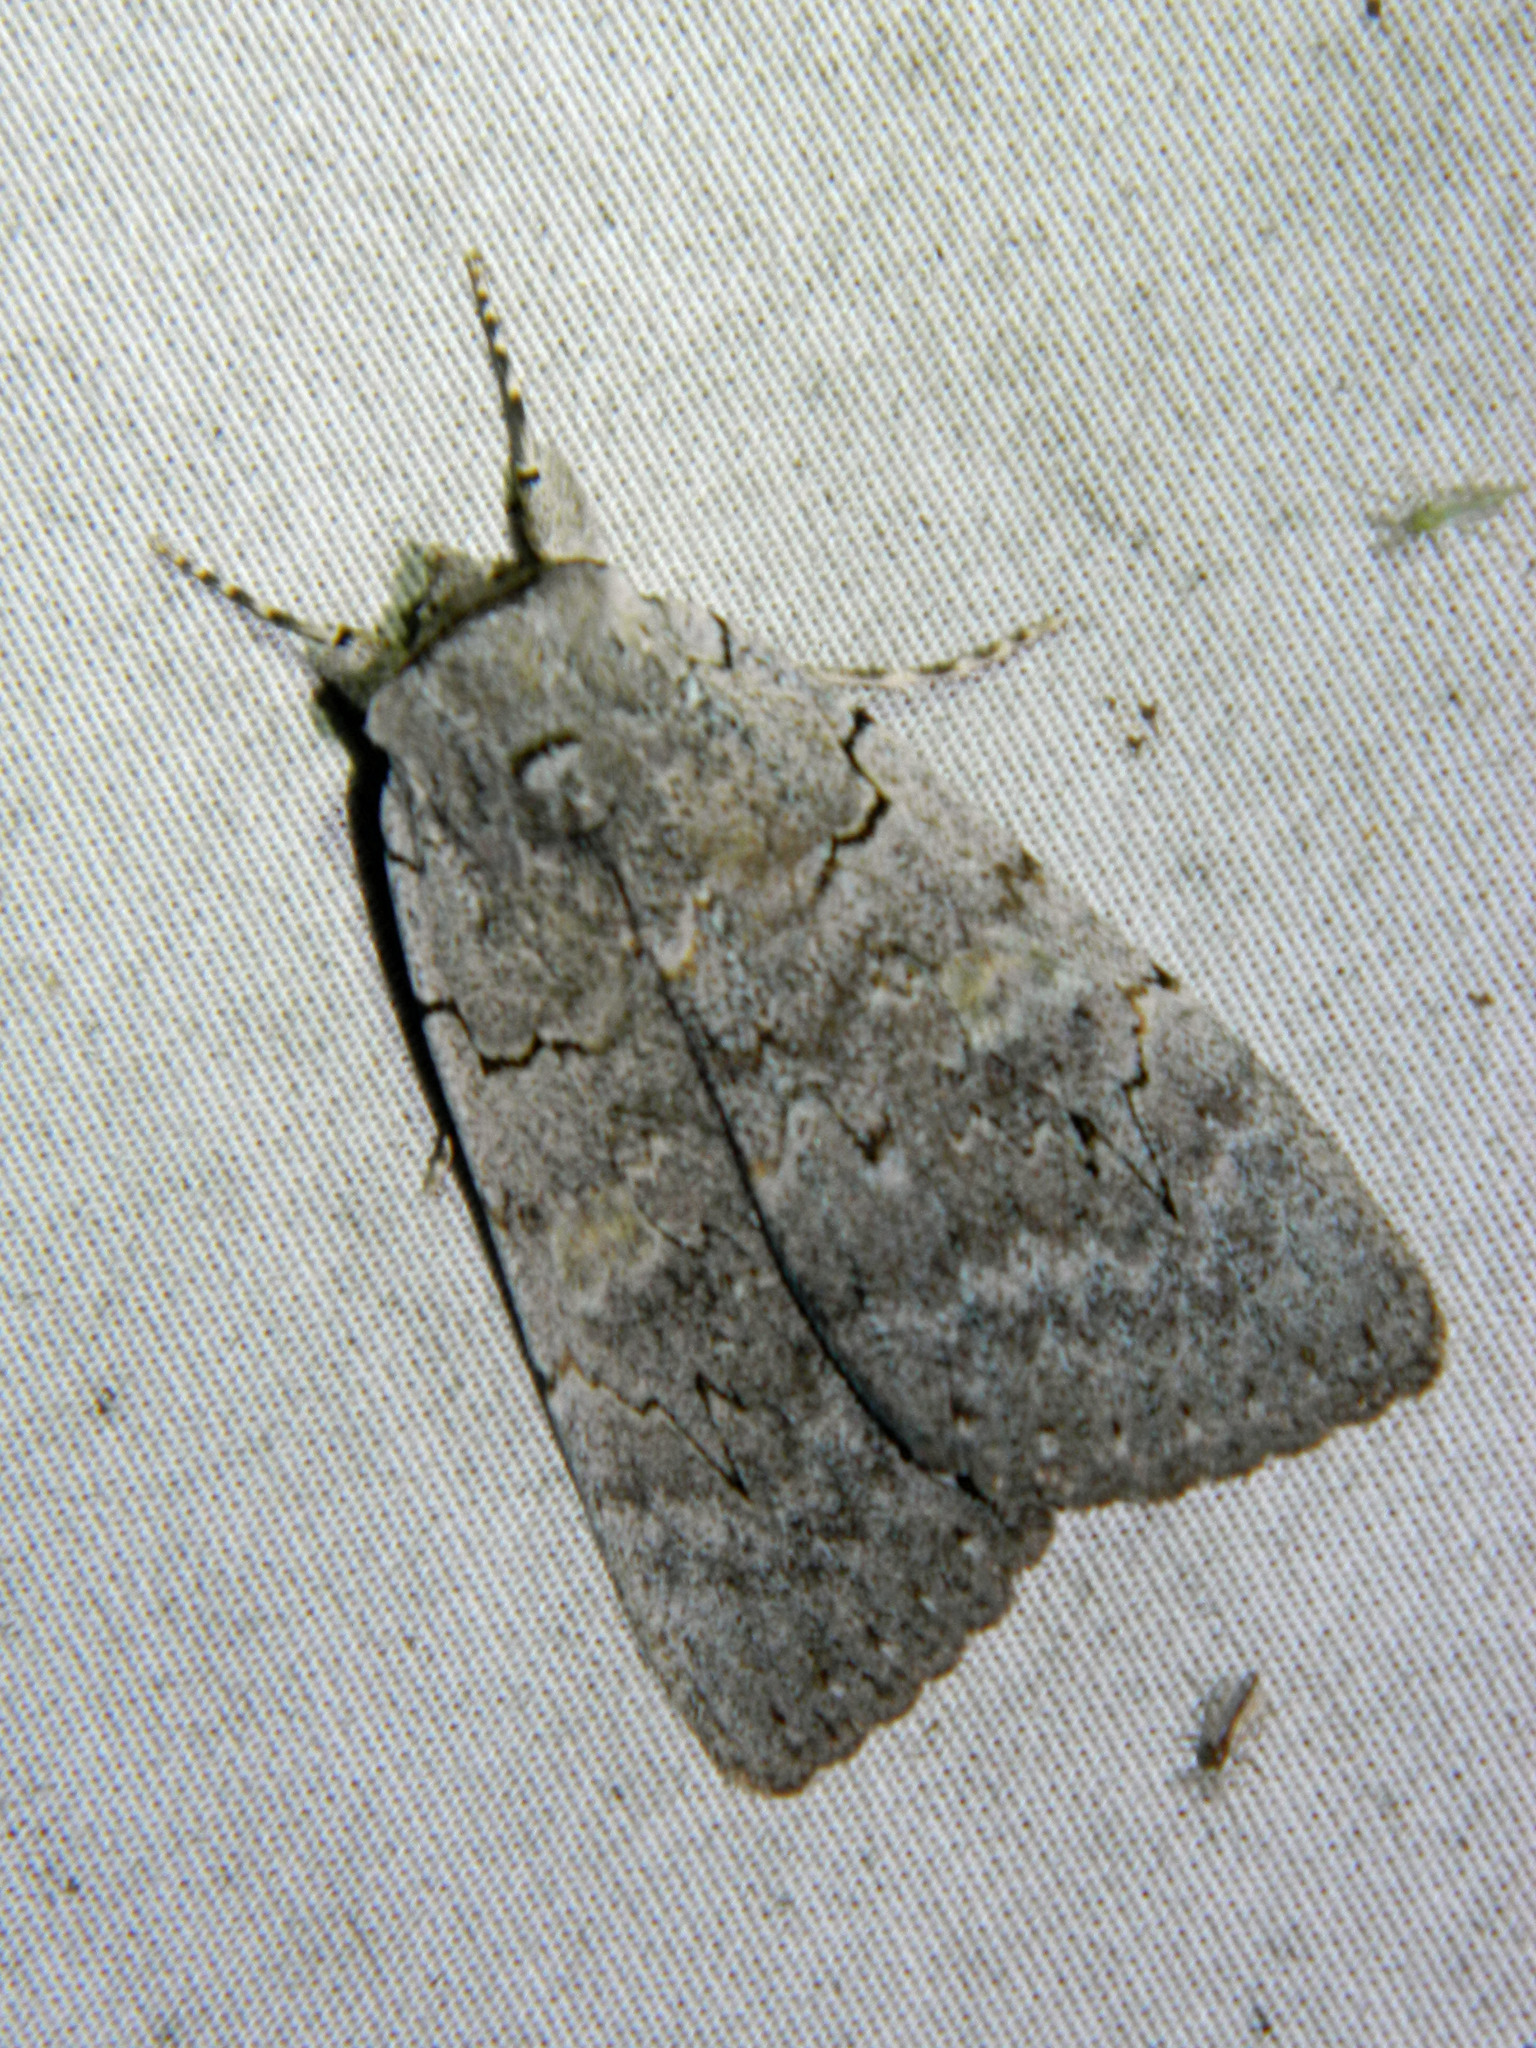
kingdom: Animalia
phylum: Arthropoda
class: Insecta
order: Lepidoptera
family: Erebidae
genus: Catocala
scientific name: Catocala concumbens
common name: Pink underwing
